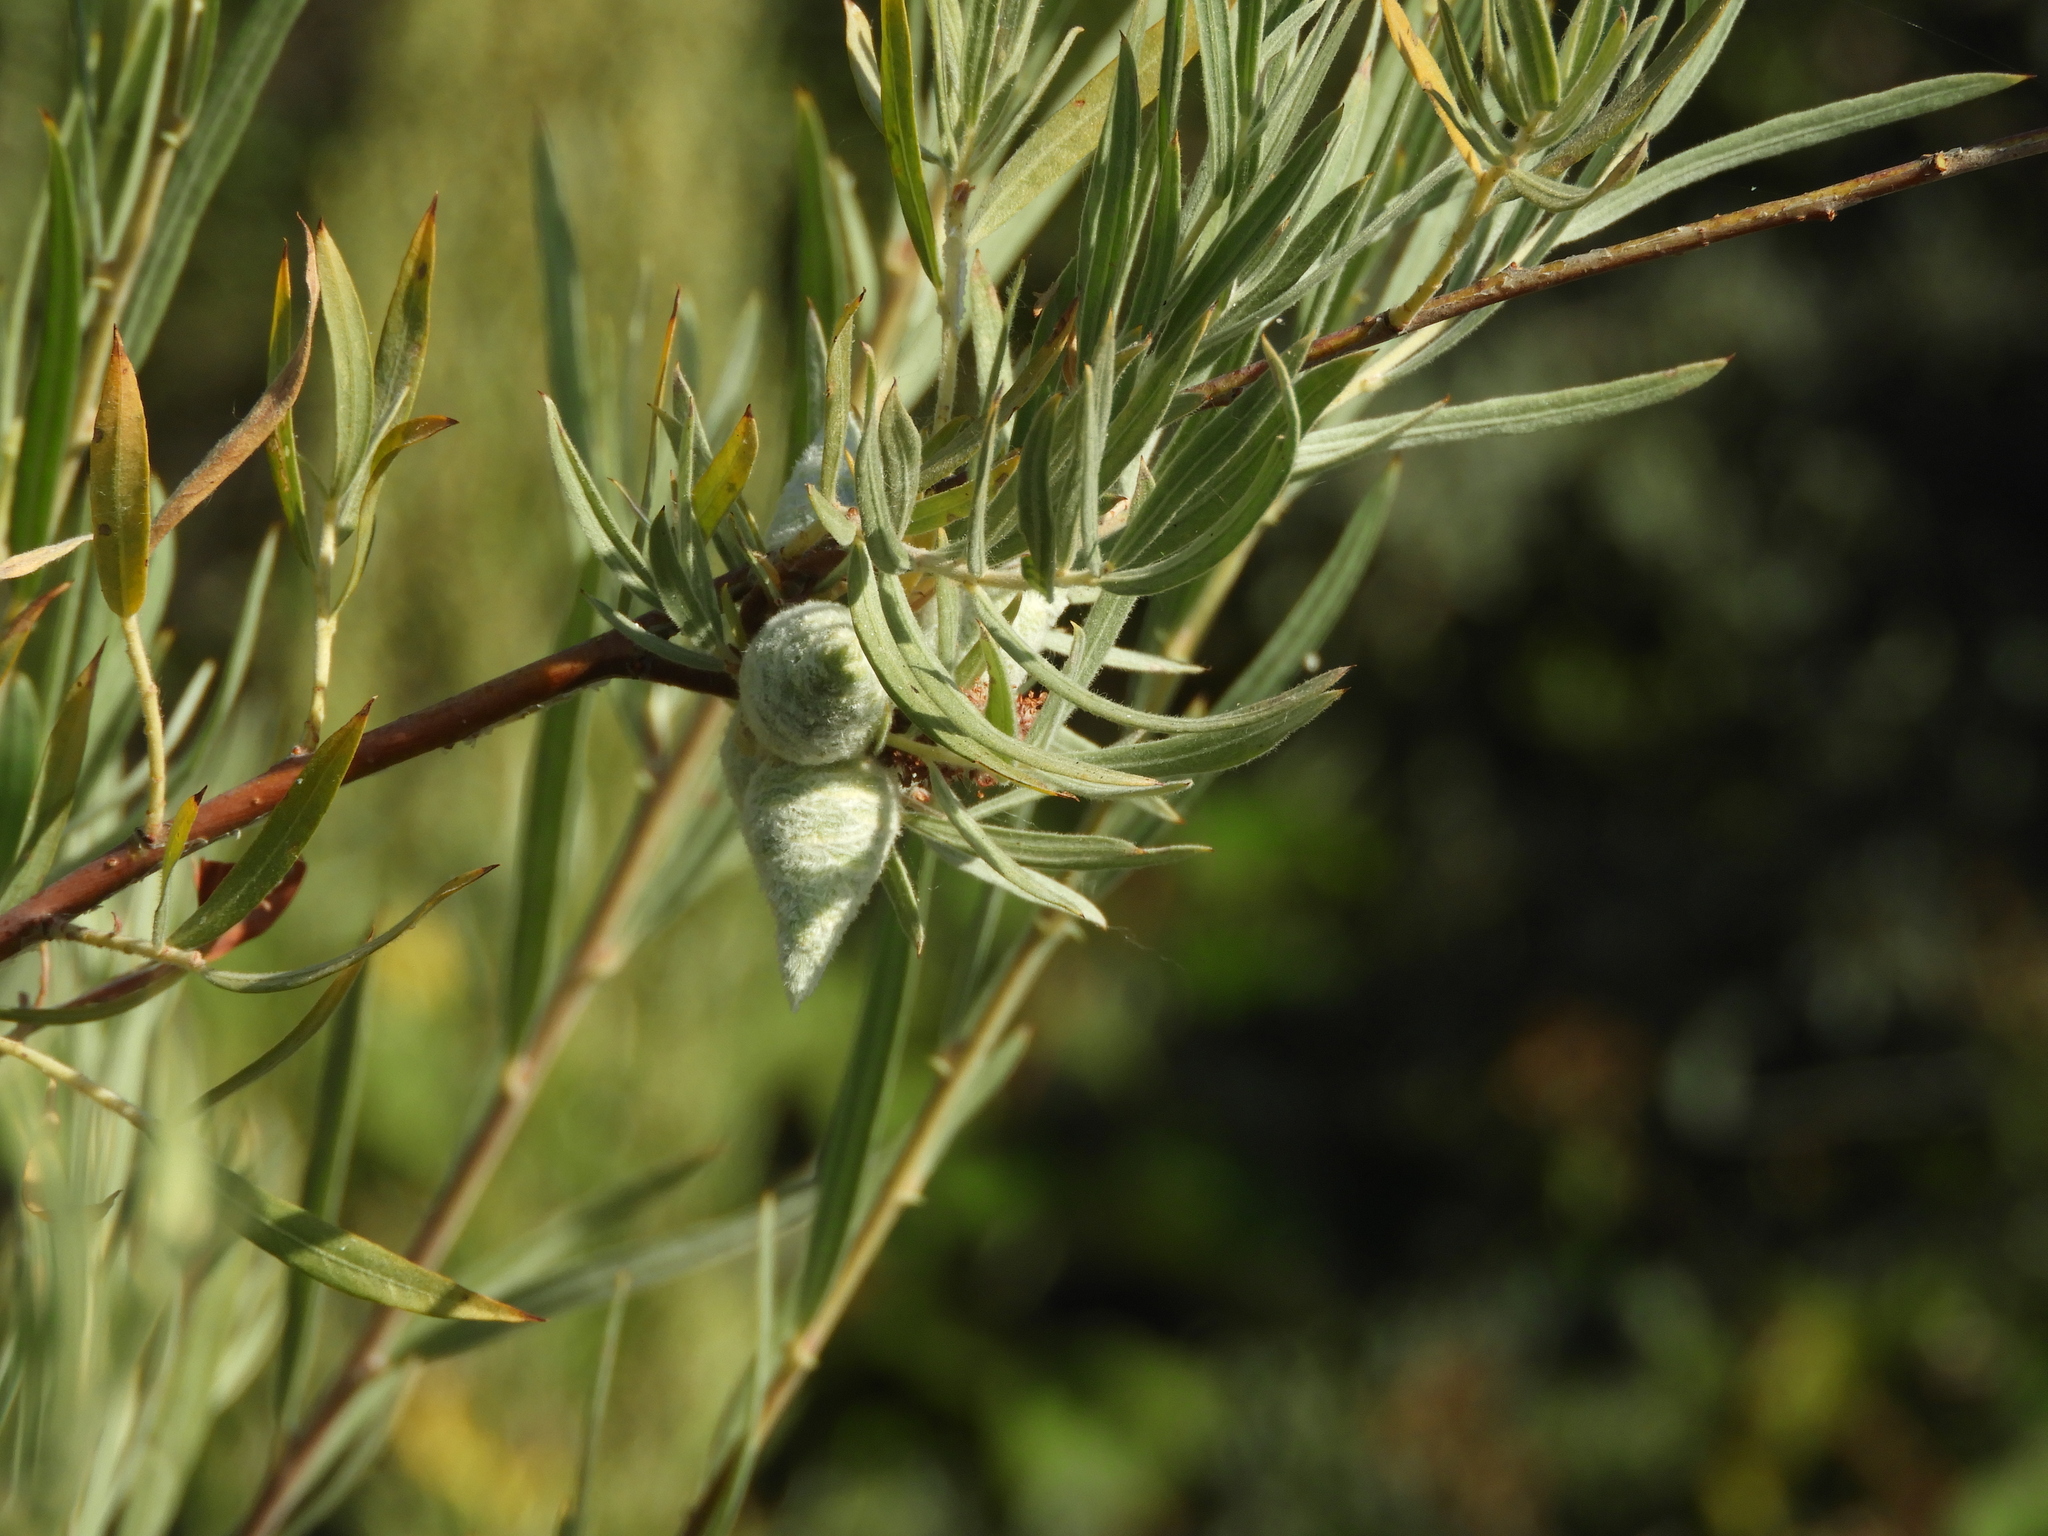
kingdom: Animalia
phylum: Arthropoda
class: Insecta
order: Diptera
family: Cecidomyiidae
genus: Rabdophaga
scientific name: Rabdophaga strobiloides
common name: Willow pinecone gall midge
